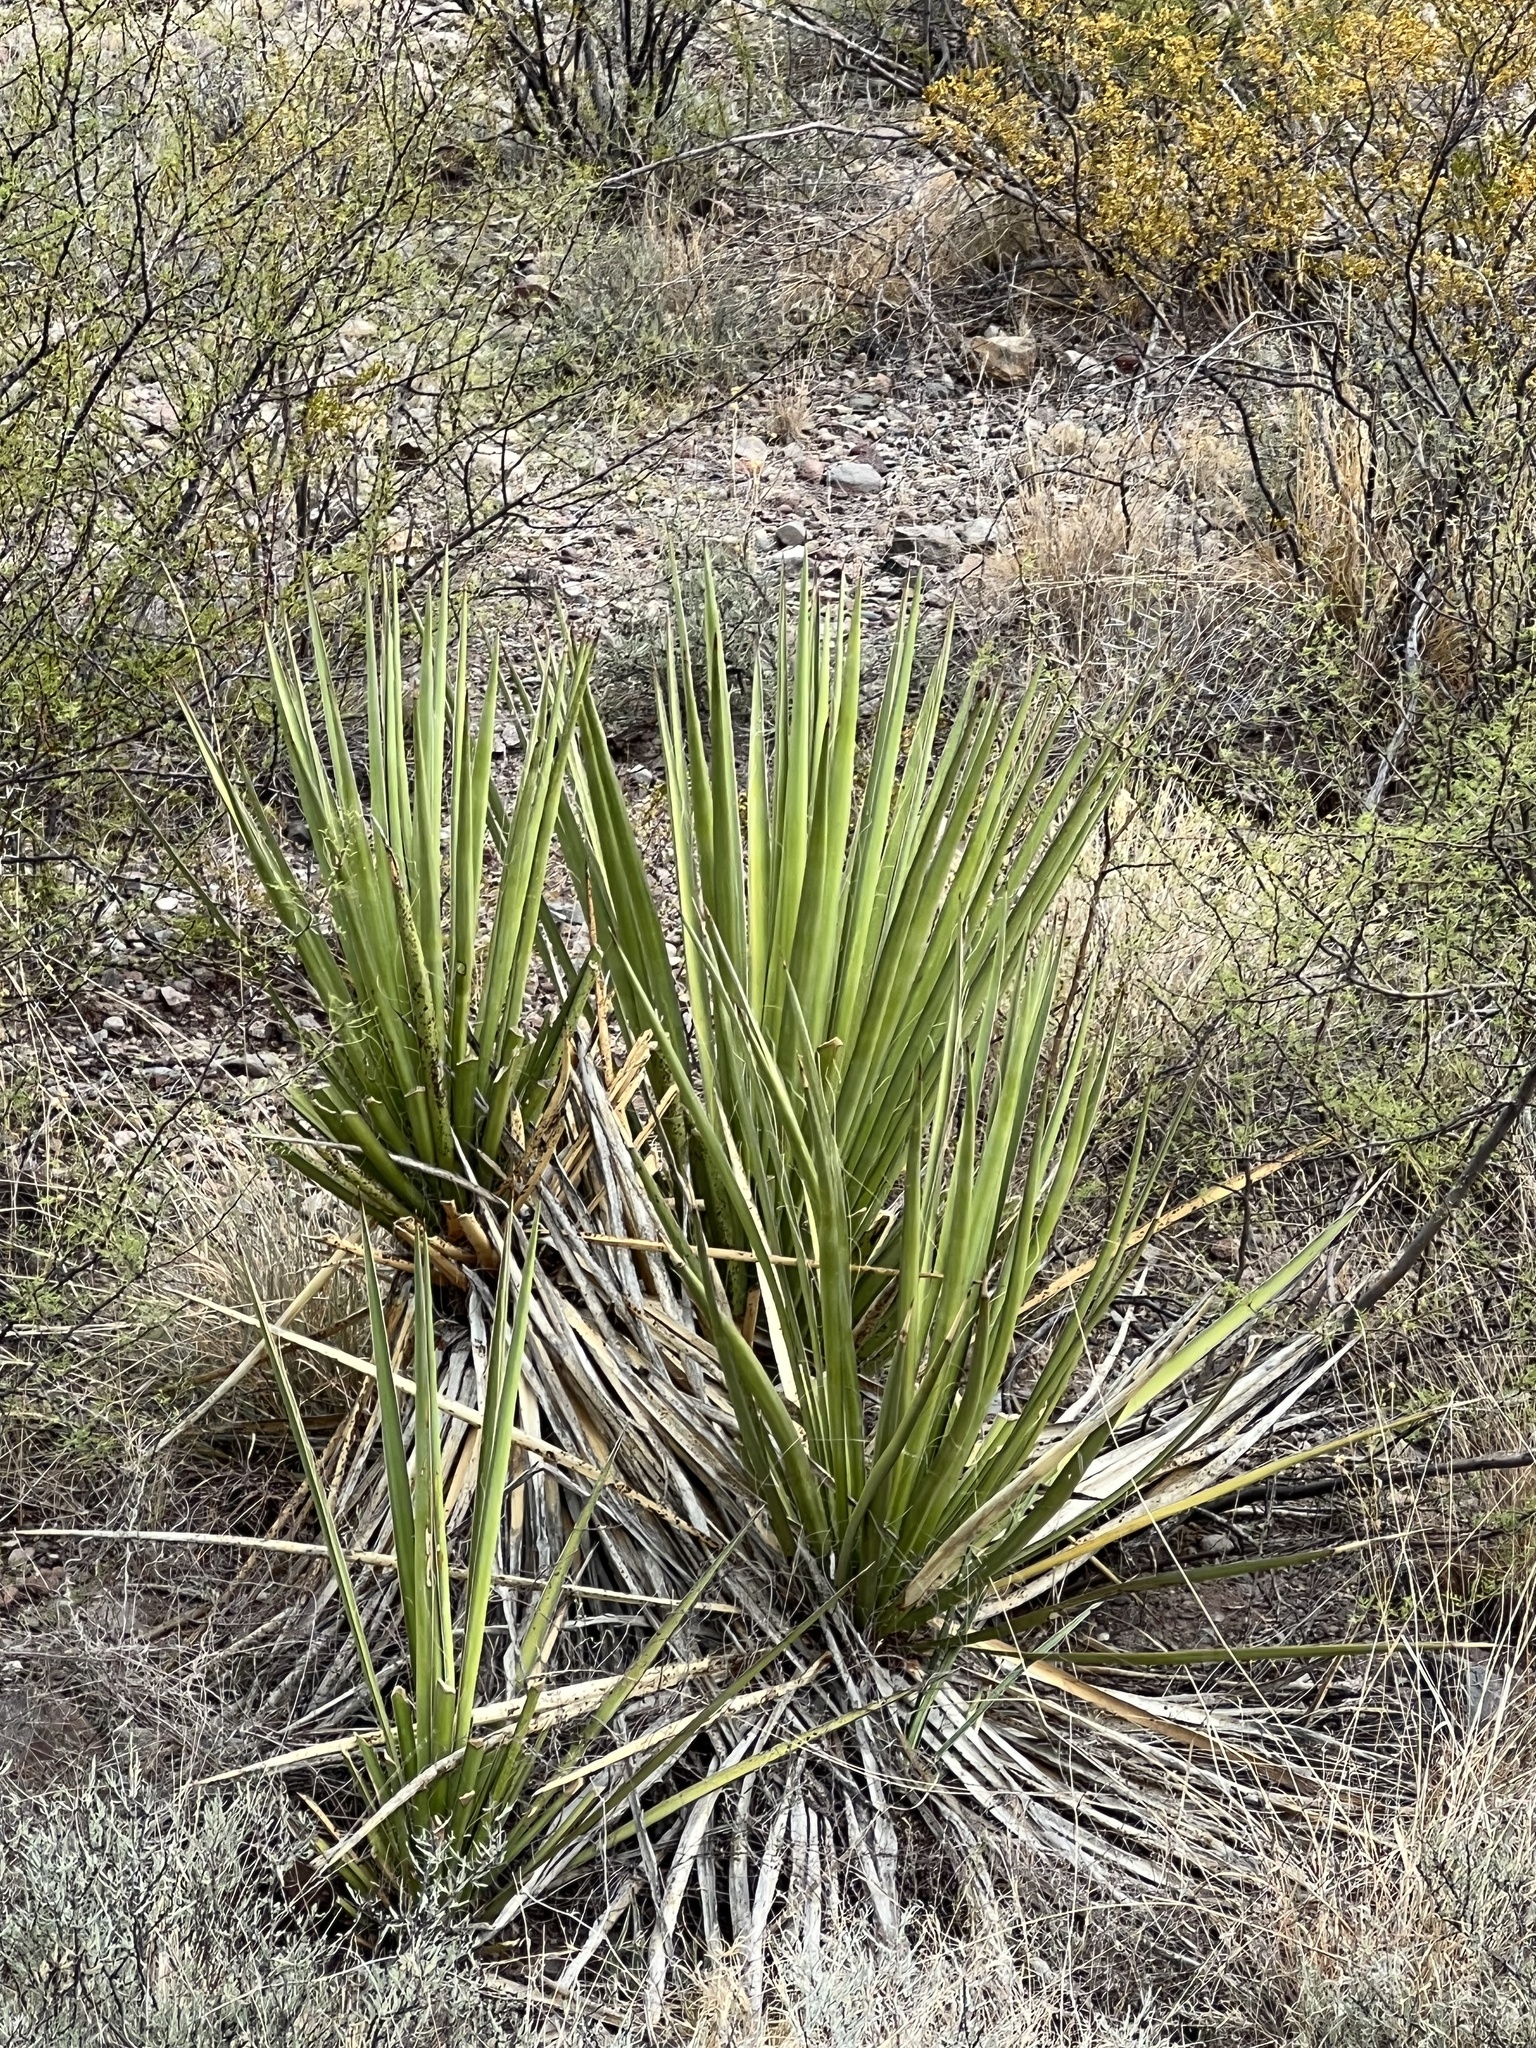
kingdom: Plantae
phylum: Tracheophyta
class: Liliopsida
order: Asparagales
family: Asparagaceae
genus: Yucca
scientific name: Yucca baccata
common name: Banana yucca
